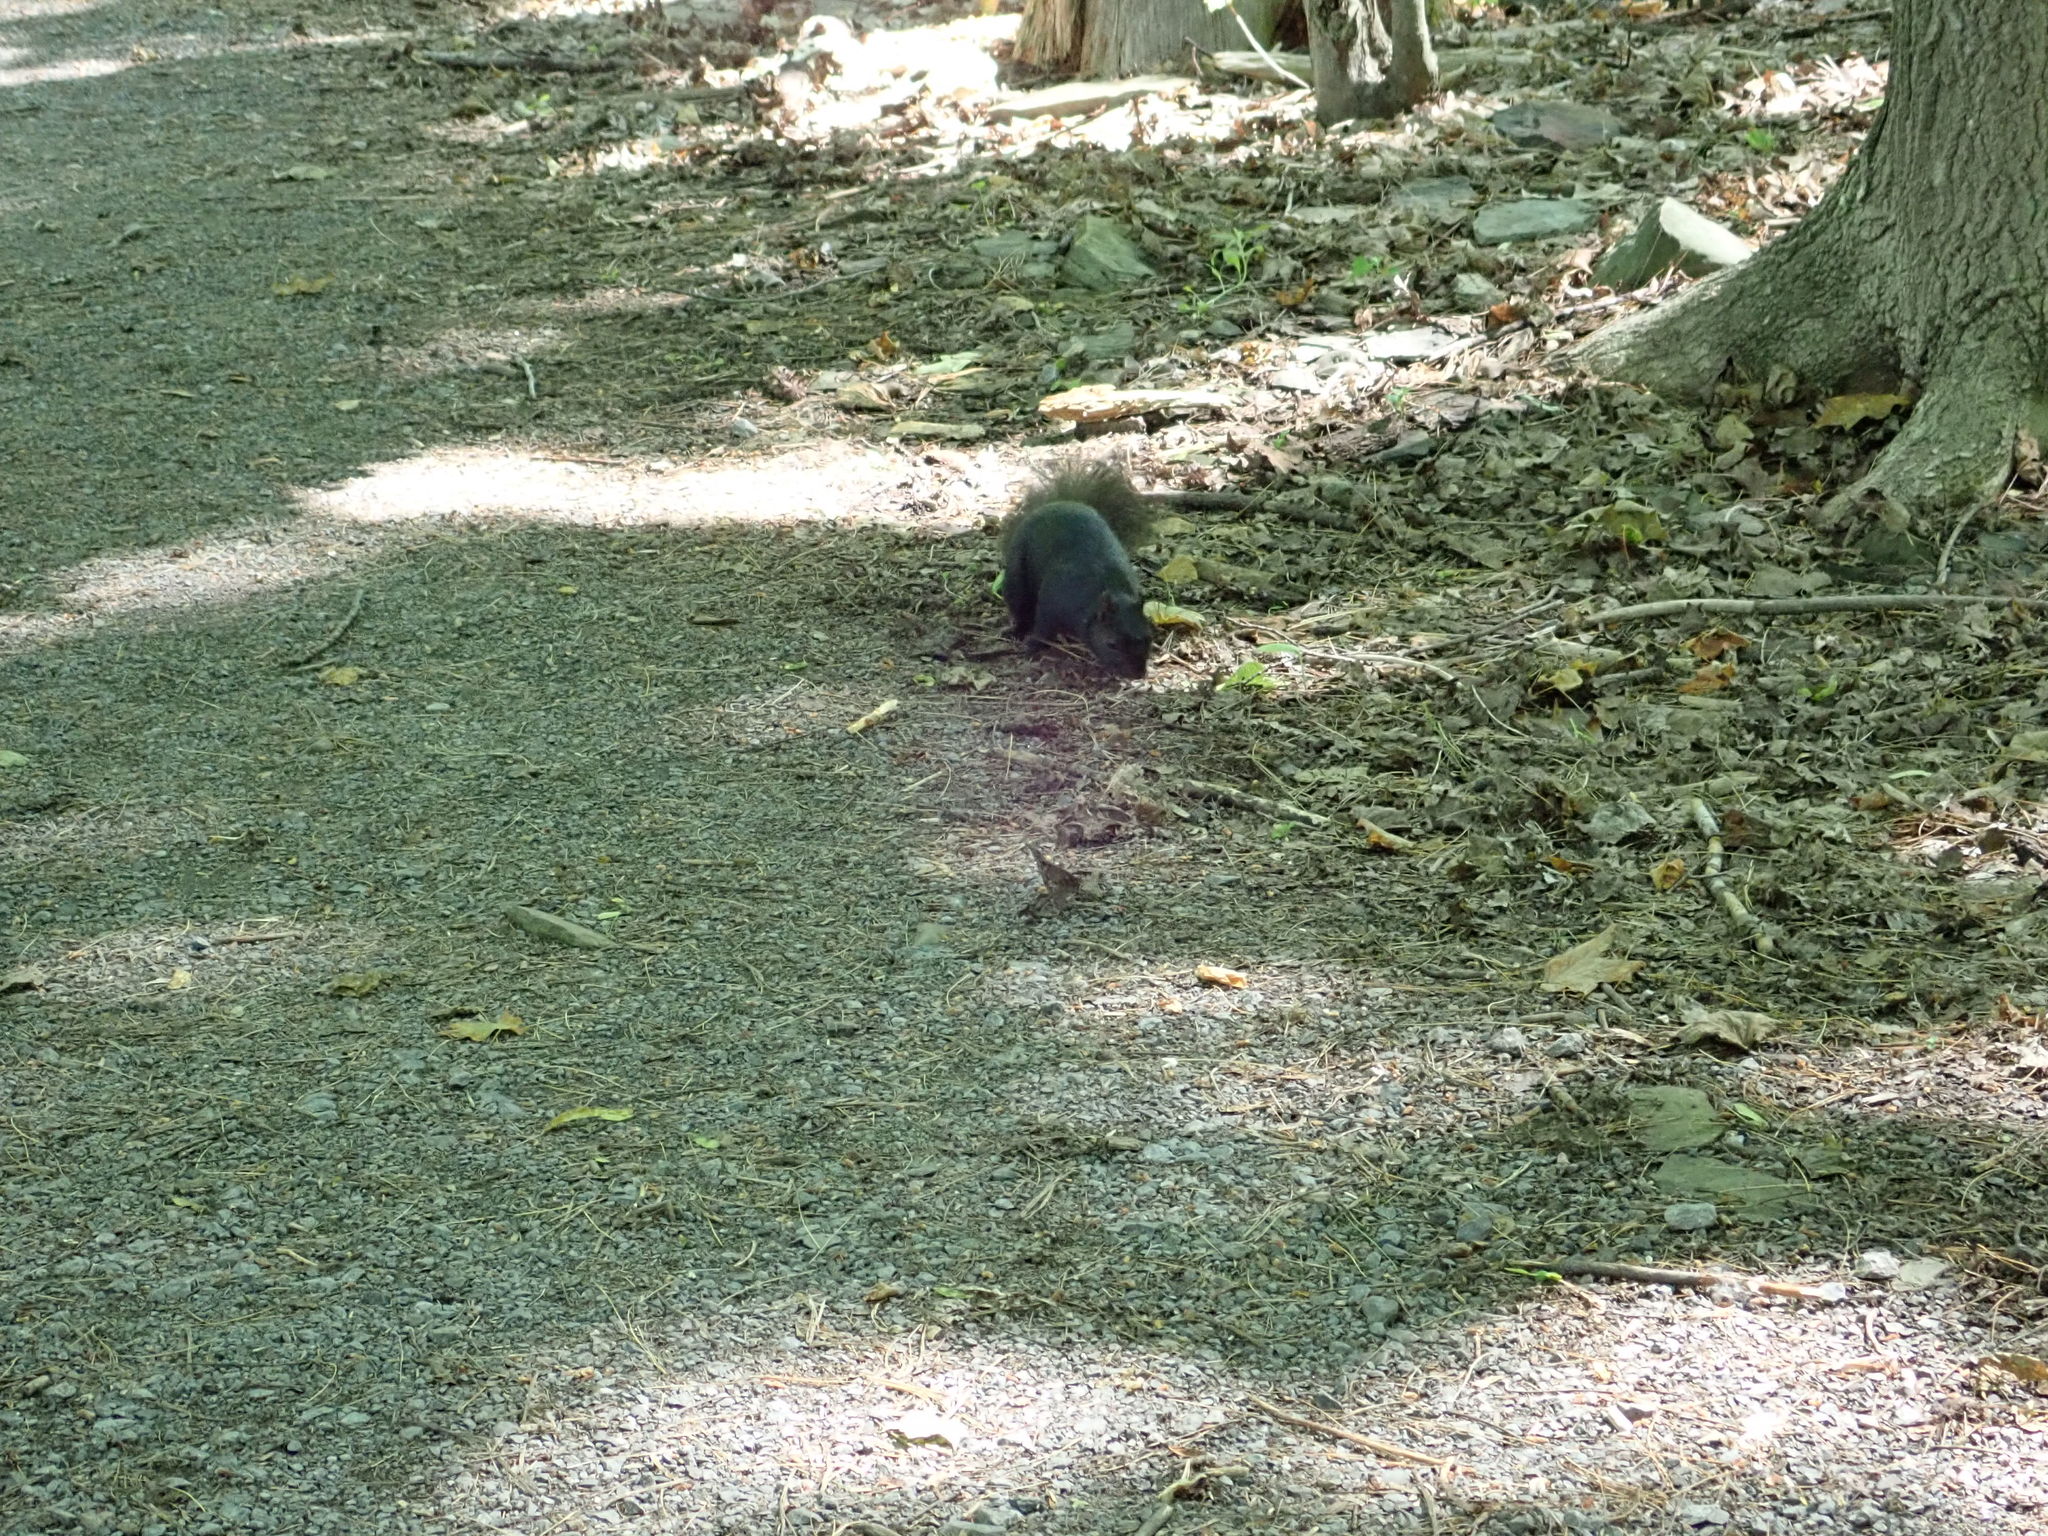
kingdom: Animalia
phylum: Chordata
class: Mammalia
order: Rodentia
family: Sciuridae
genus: Sciurus
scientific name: Sciurus carolinensis
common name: Eastern gray squirrel
